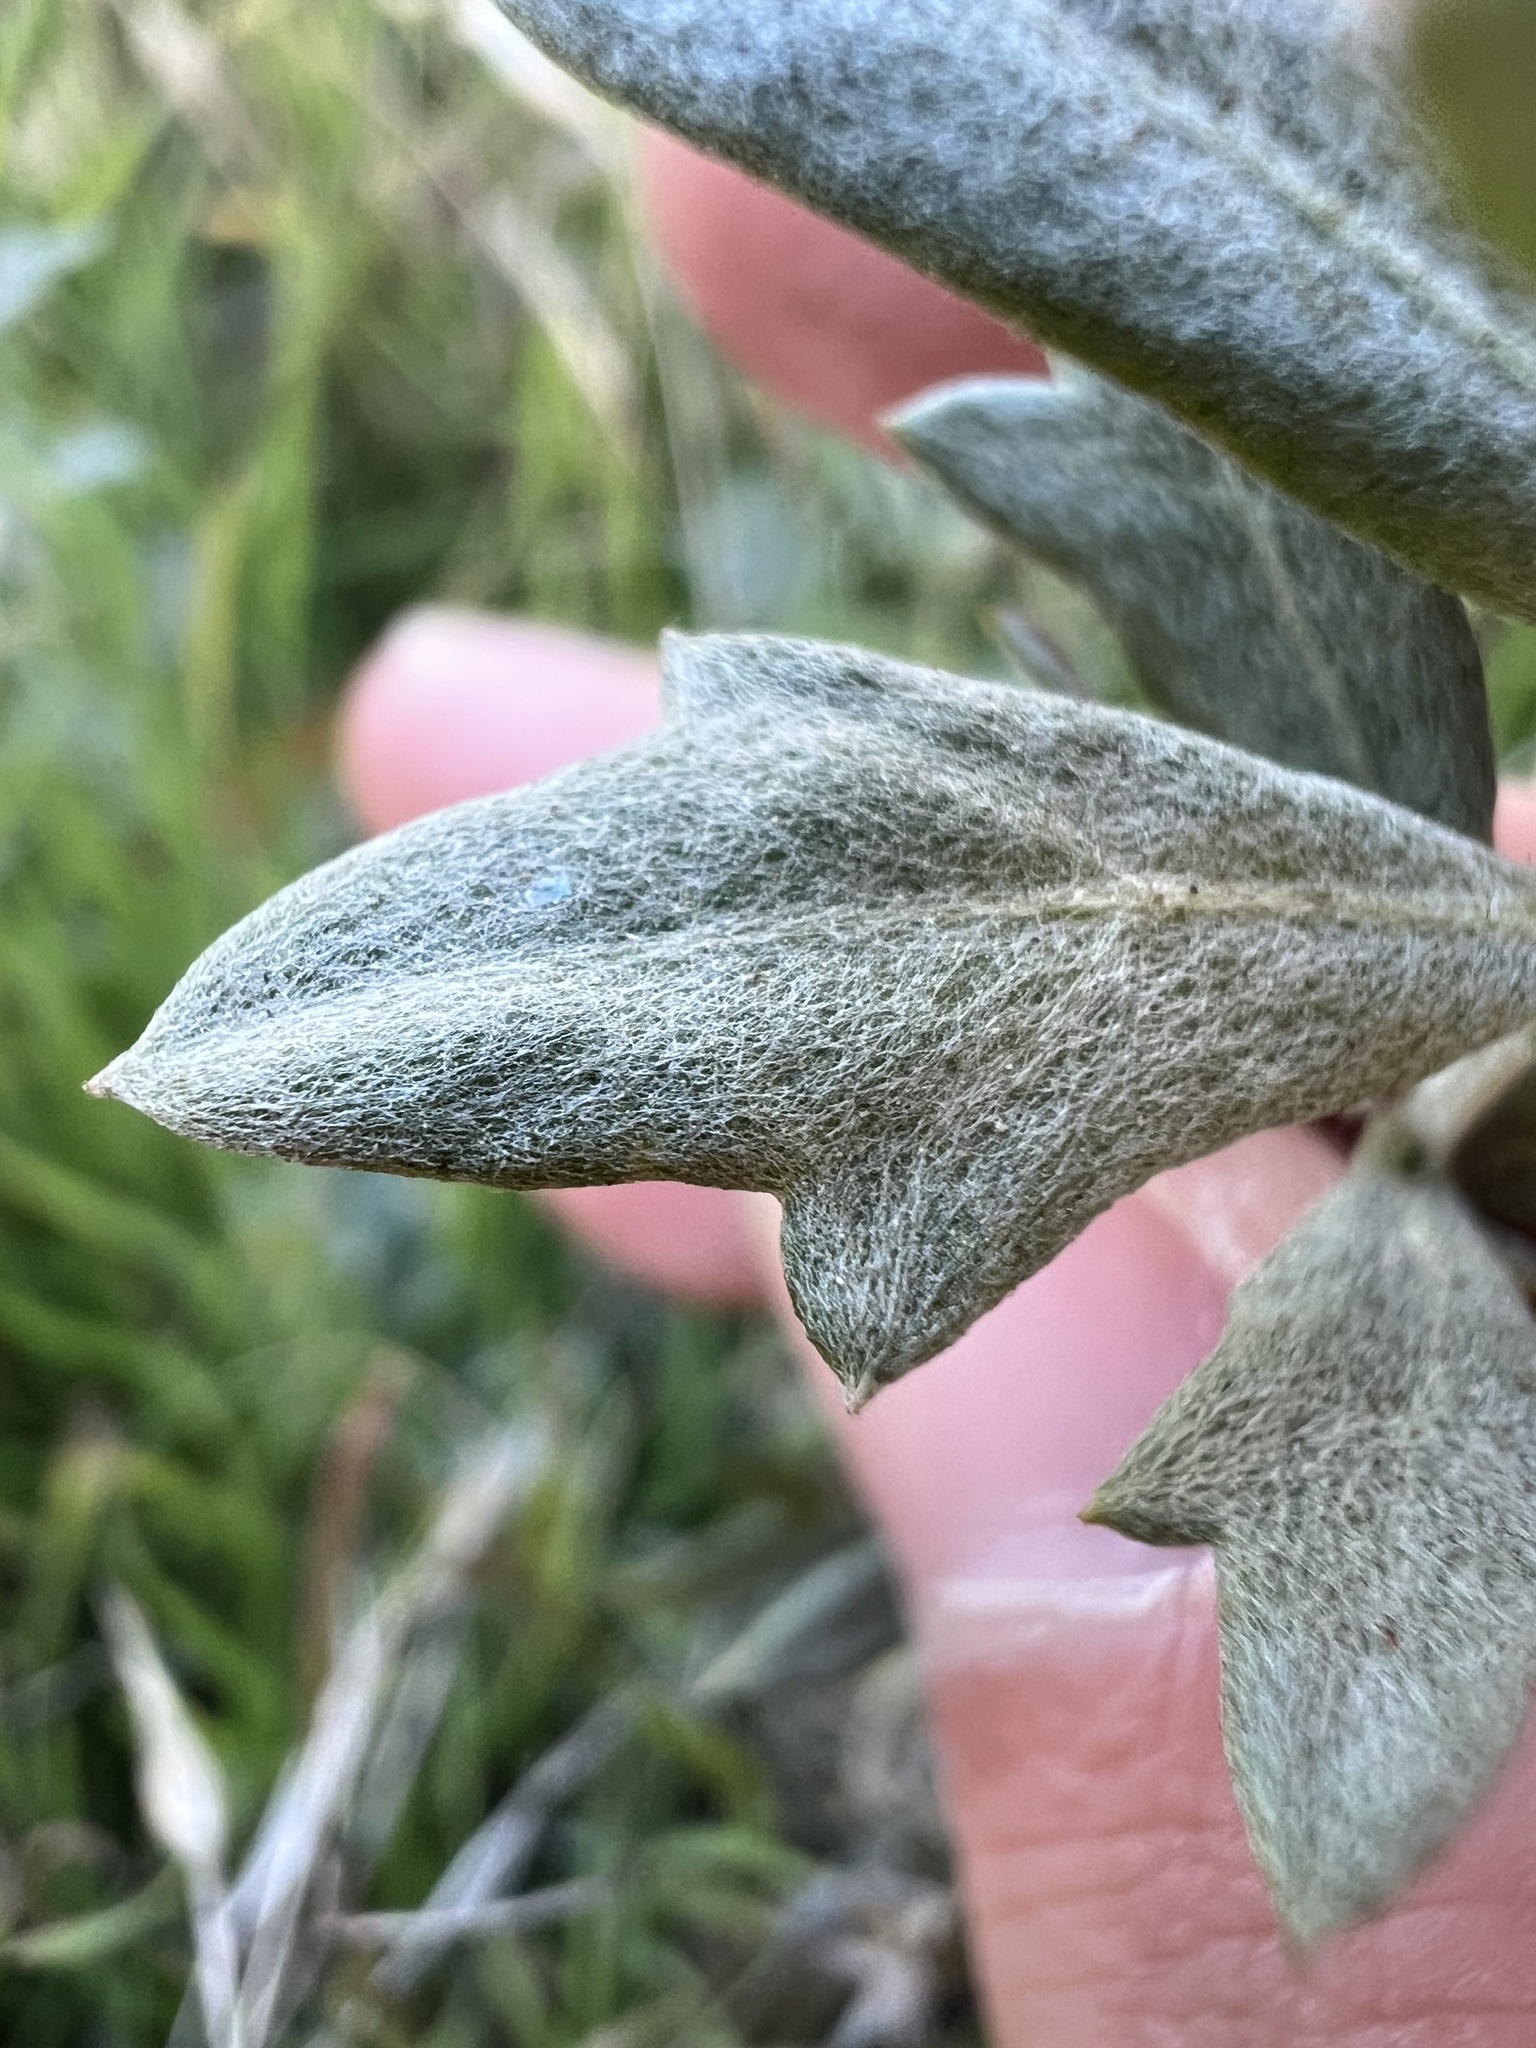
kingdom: Plantae
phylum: Tracheophyta
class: Magnoliopsida
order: Asterales
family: Asteraceae
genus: Artemisia
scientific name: Artemisia ludoviciana
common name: Western mugwort
